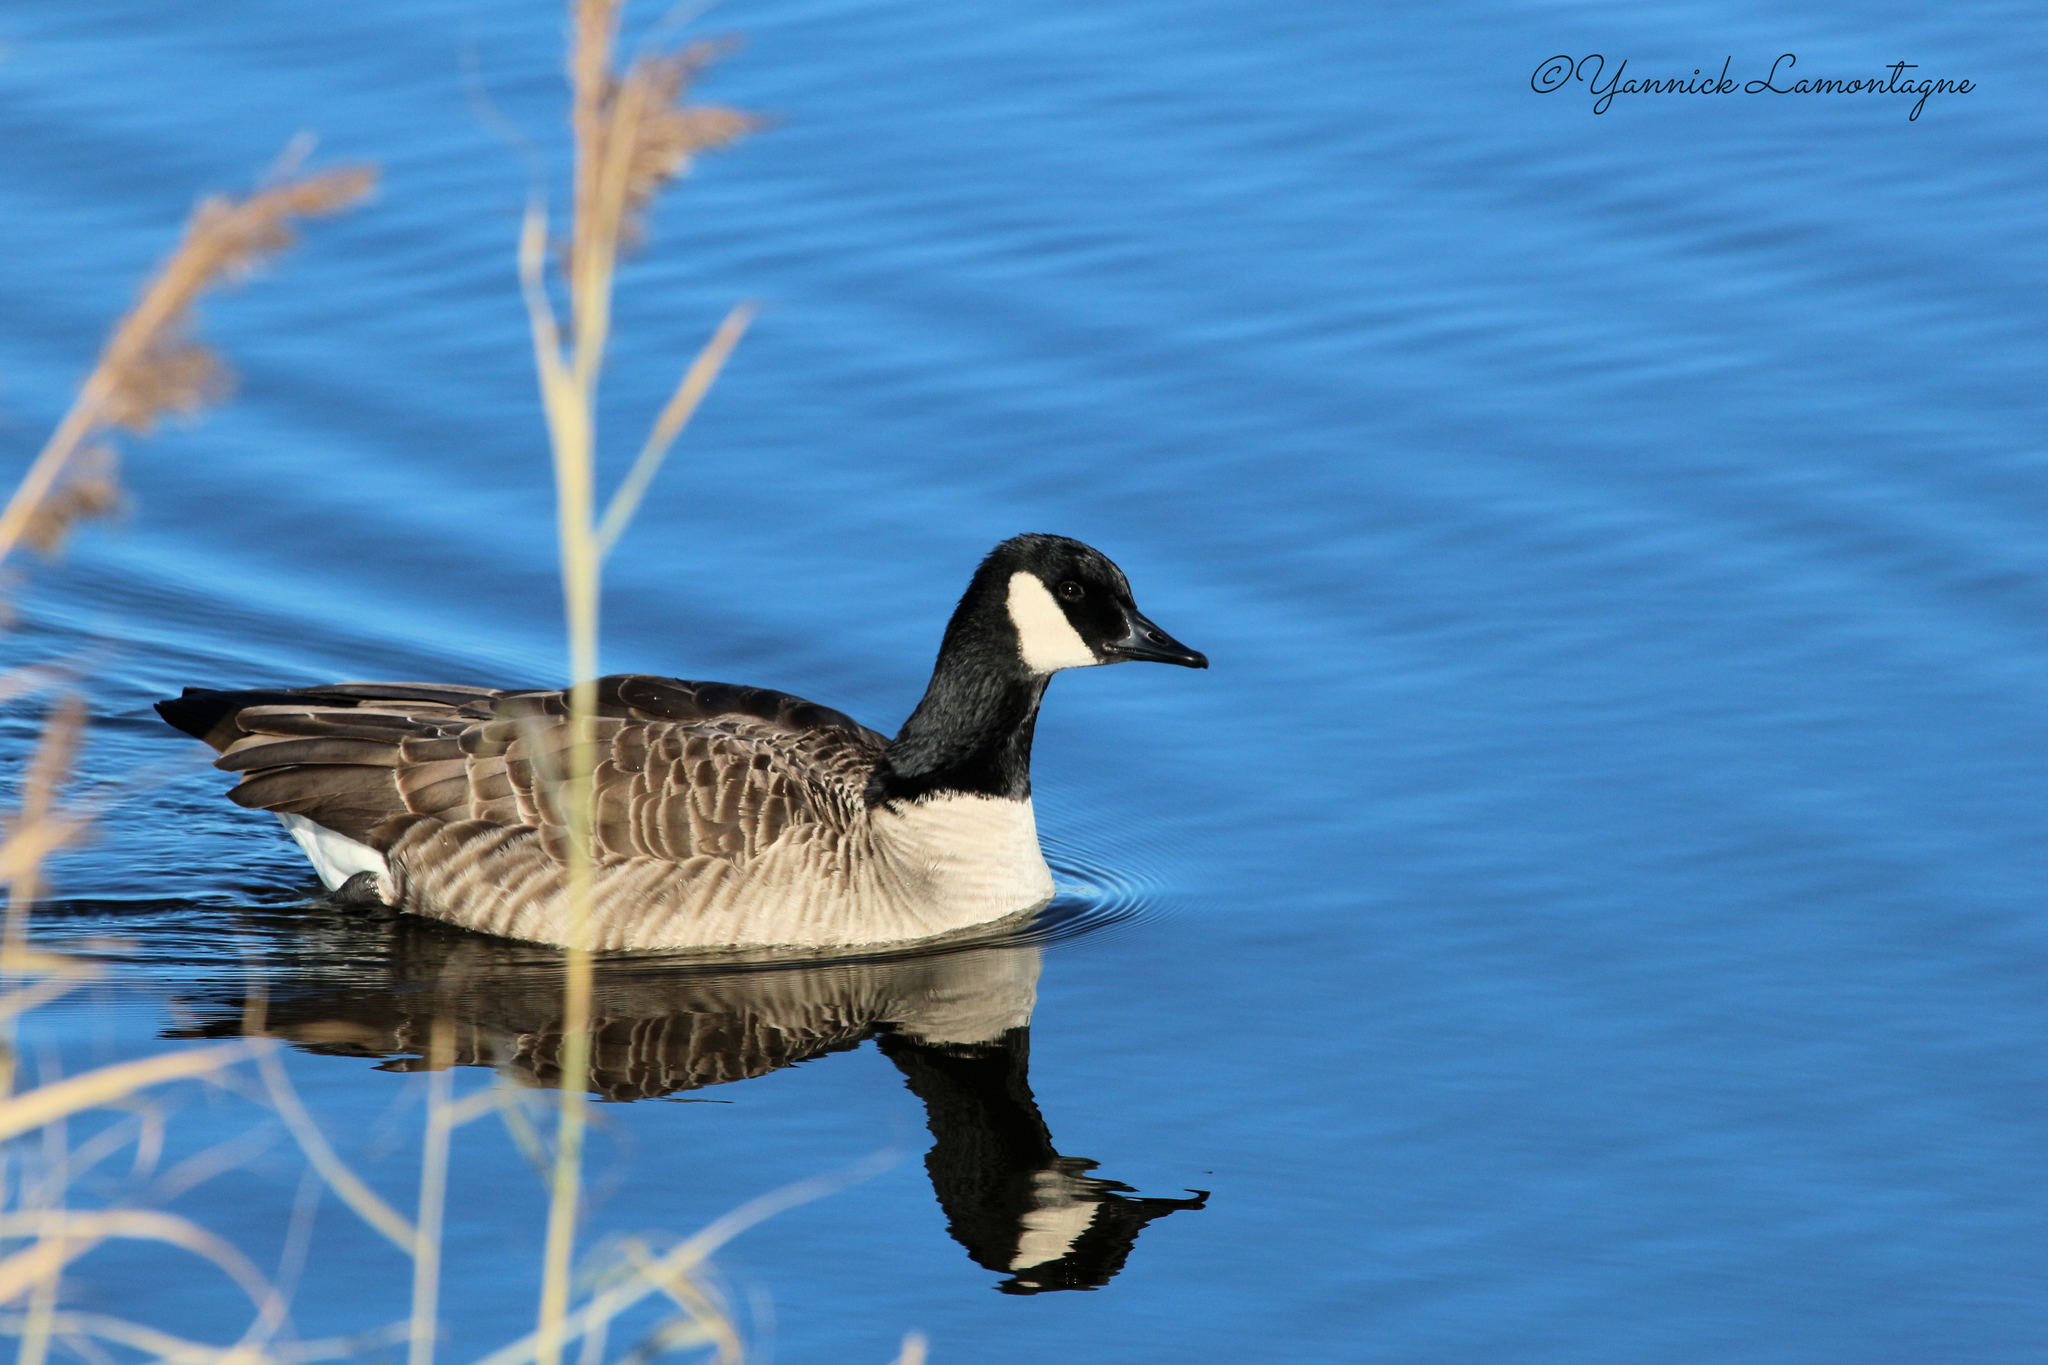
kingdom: Animalia
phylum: Chordata
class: Aves
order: Anseriformes
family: Anatidae
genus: Branta
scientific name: Branta canadensis
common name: Canada goose
